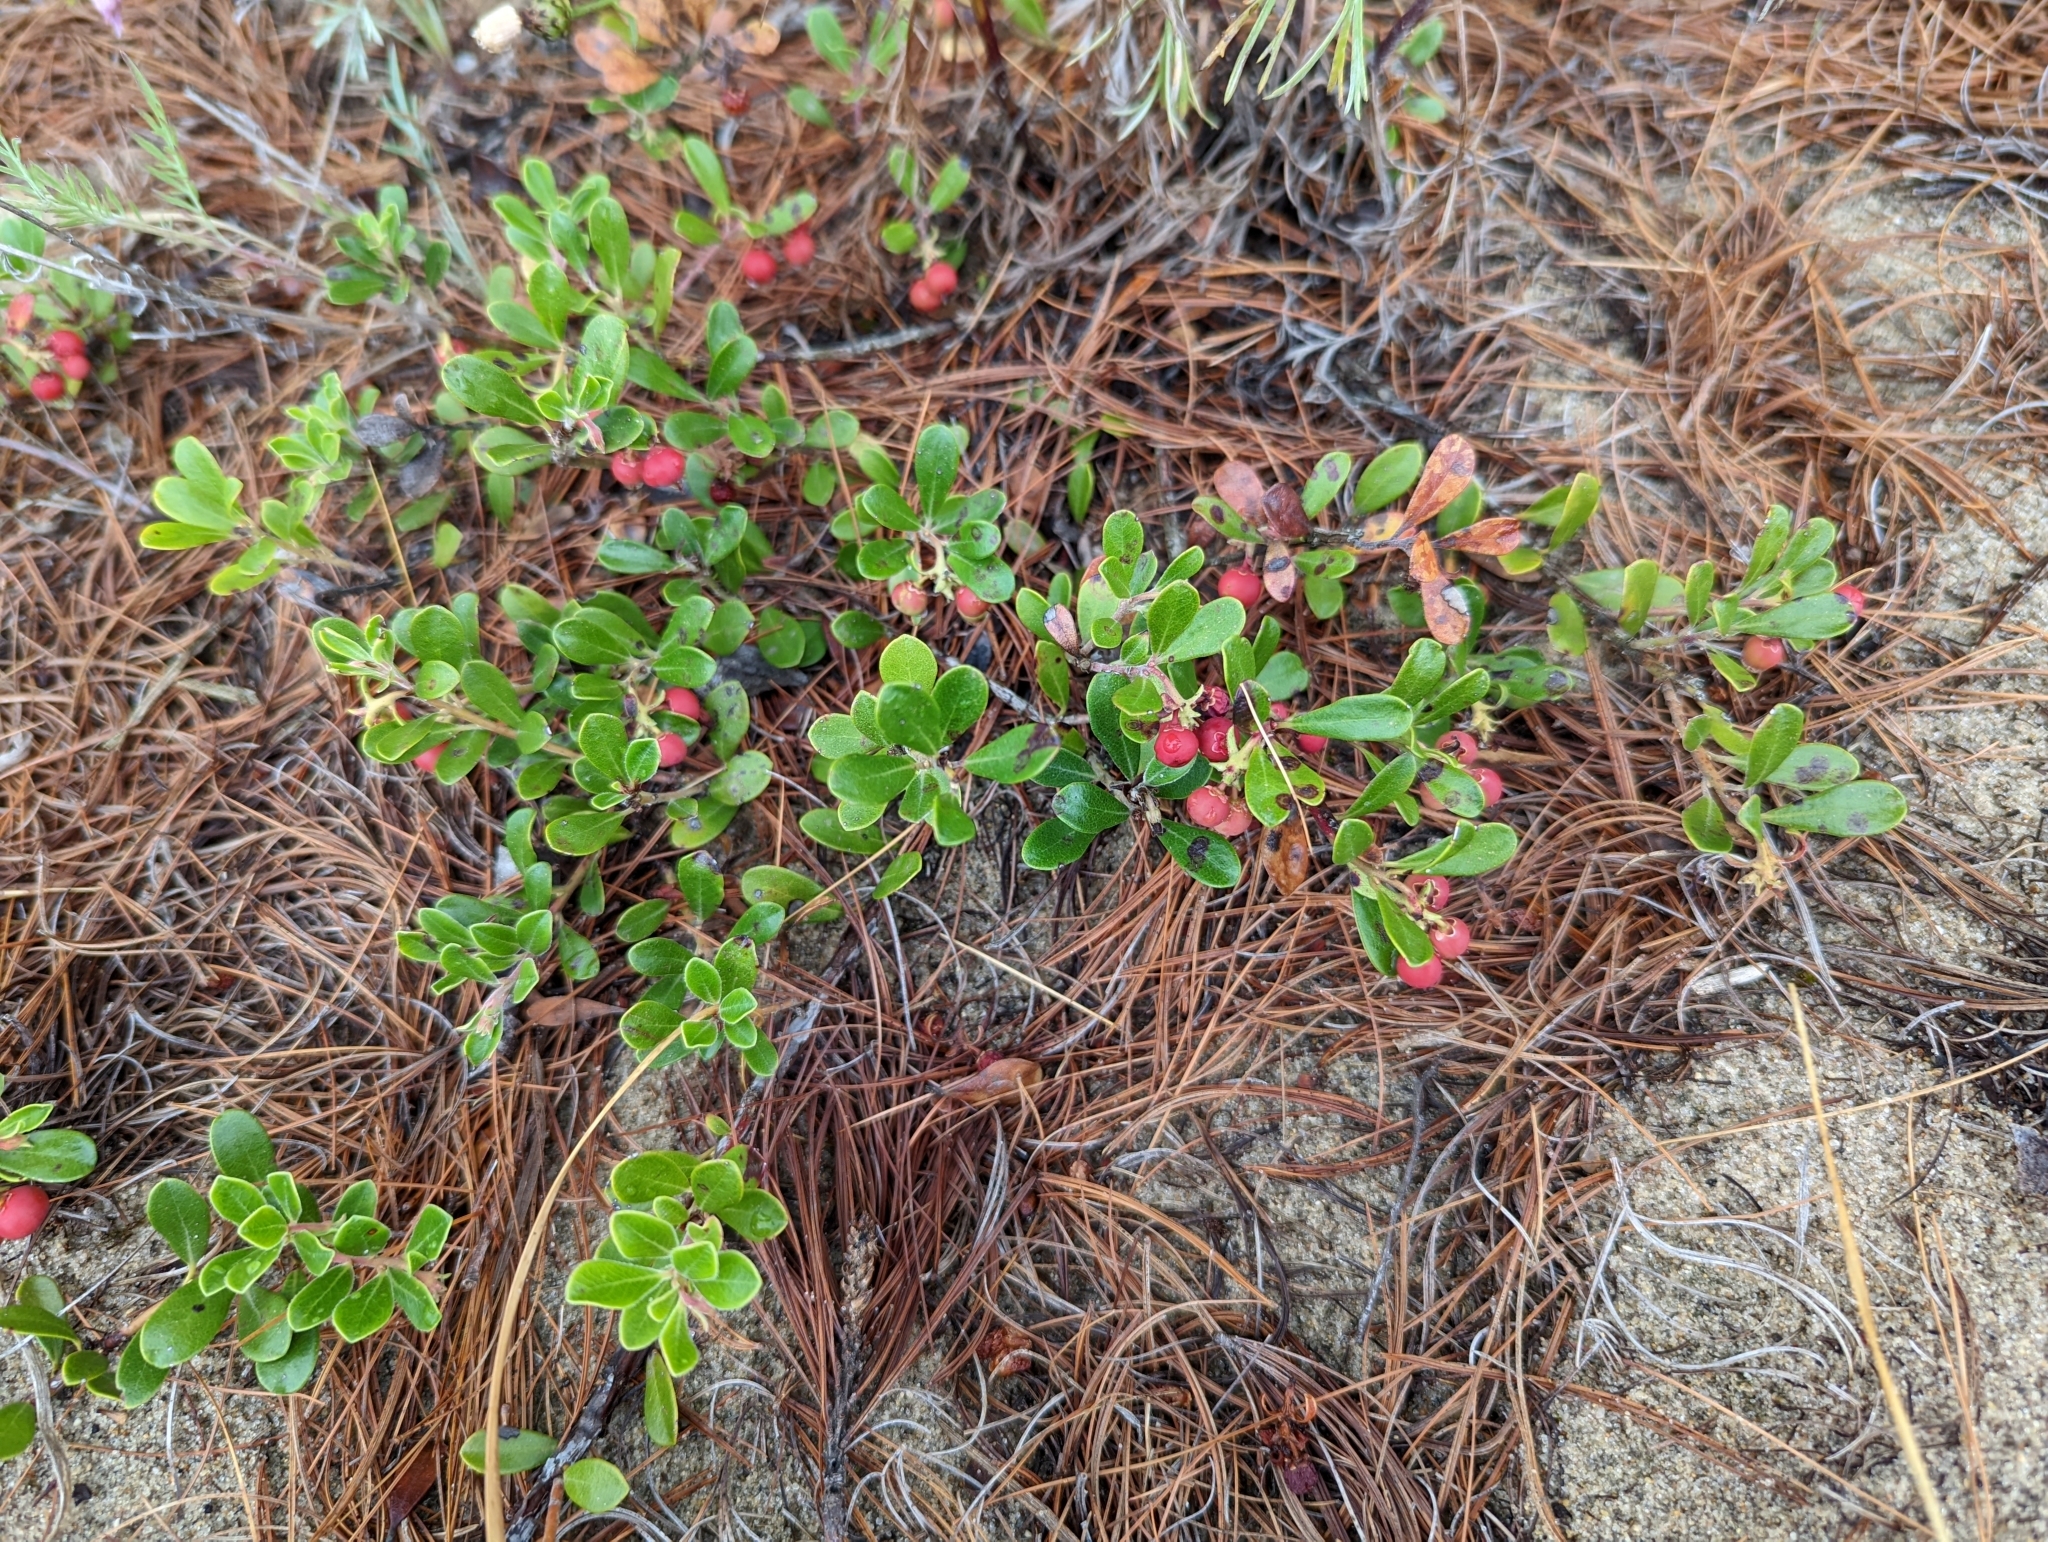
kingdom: Plantae
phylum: Tracheophyta
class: Magnoliopsida
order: Ericales
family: Ericaceae
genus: Arctostaphylos
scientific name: Arctostaphylos uva-ursi
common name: Bearberry
